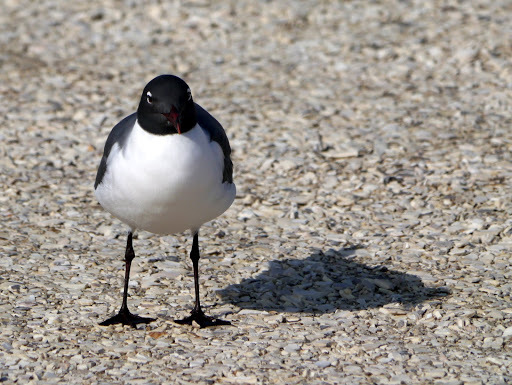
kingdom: Animalia
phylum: Chordata
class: Aves
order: Charadriiformes
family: Laridae
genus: Leucophaeus
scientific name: Leucophaeus atricilla
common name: Laughing gull
